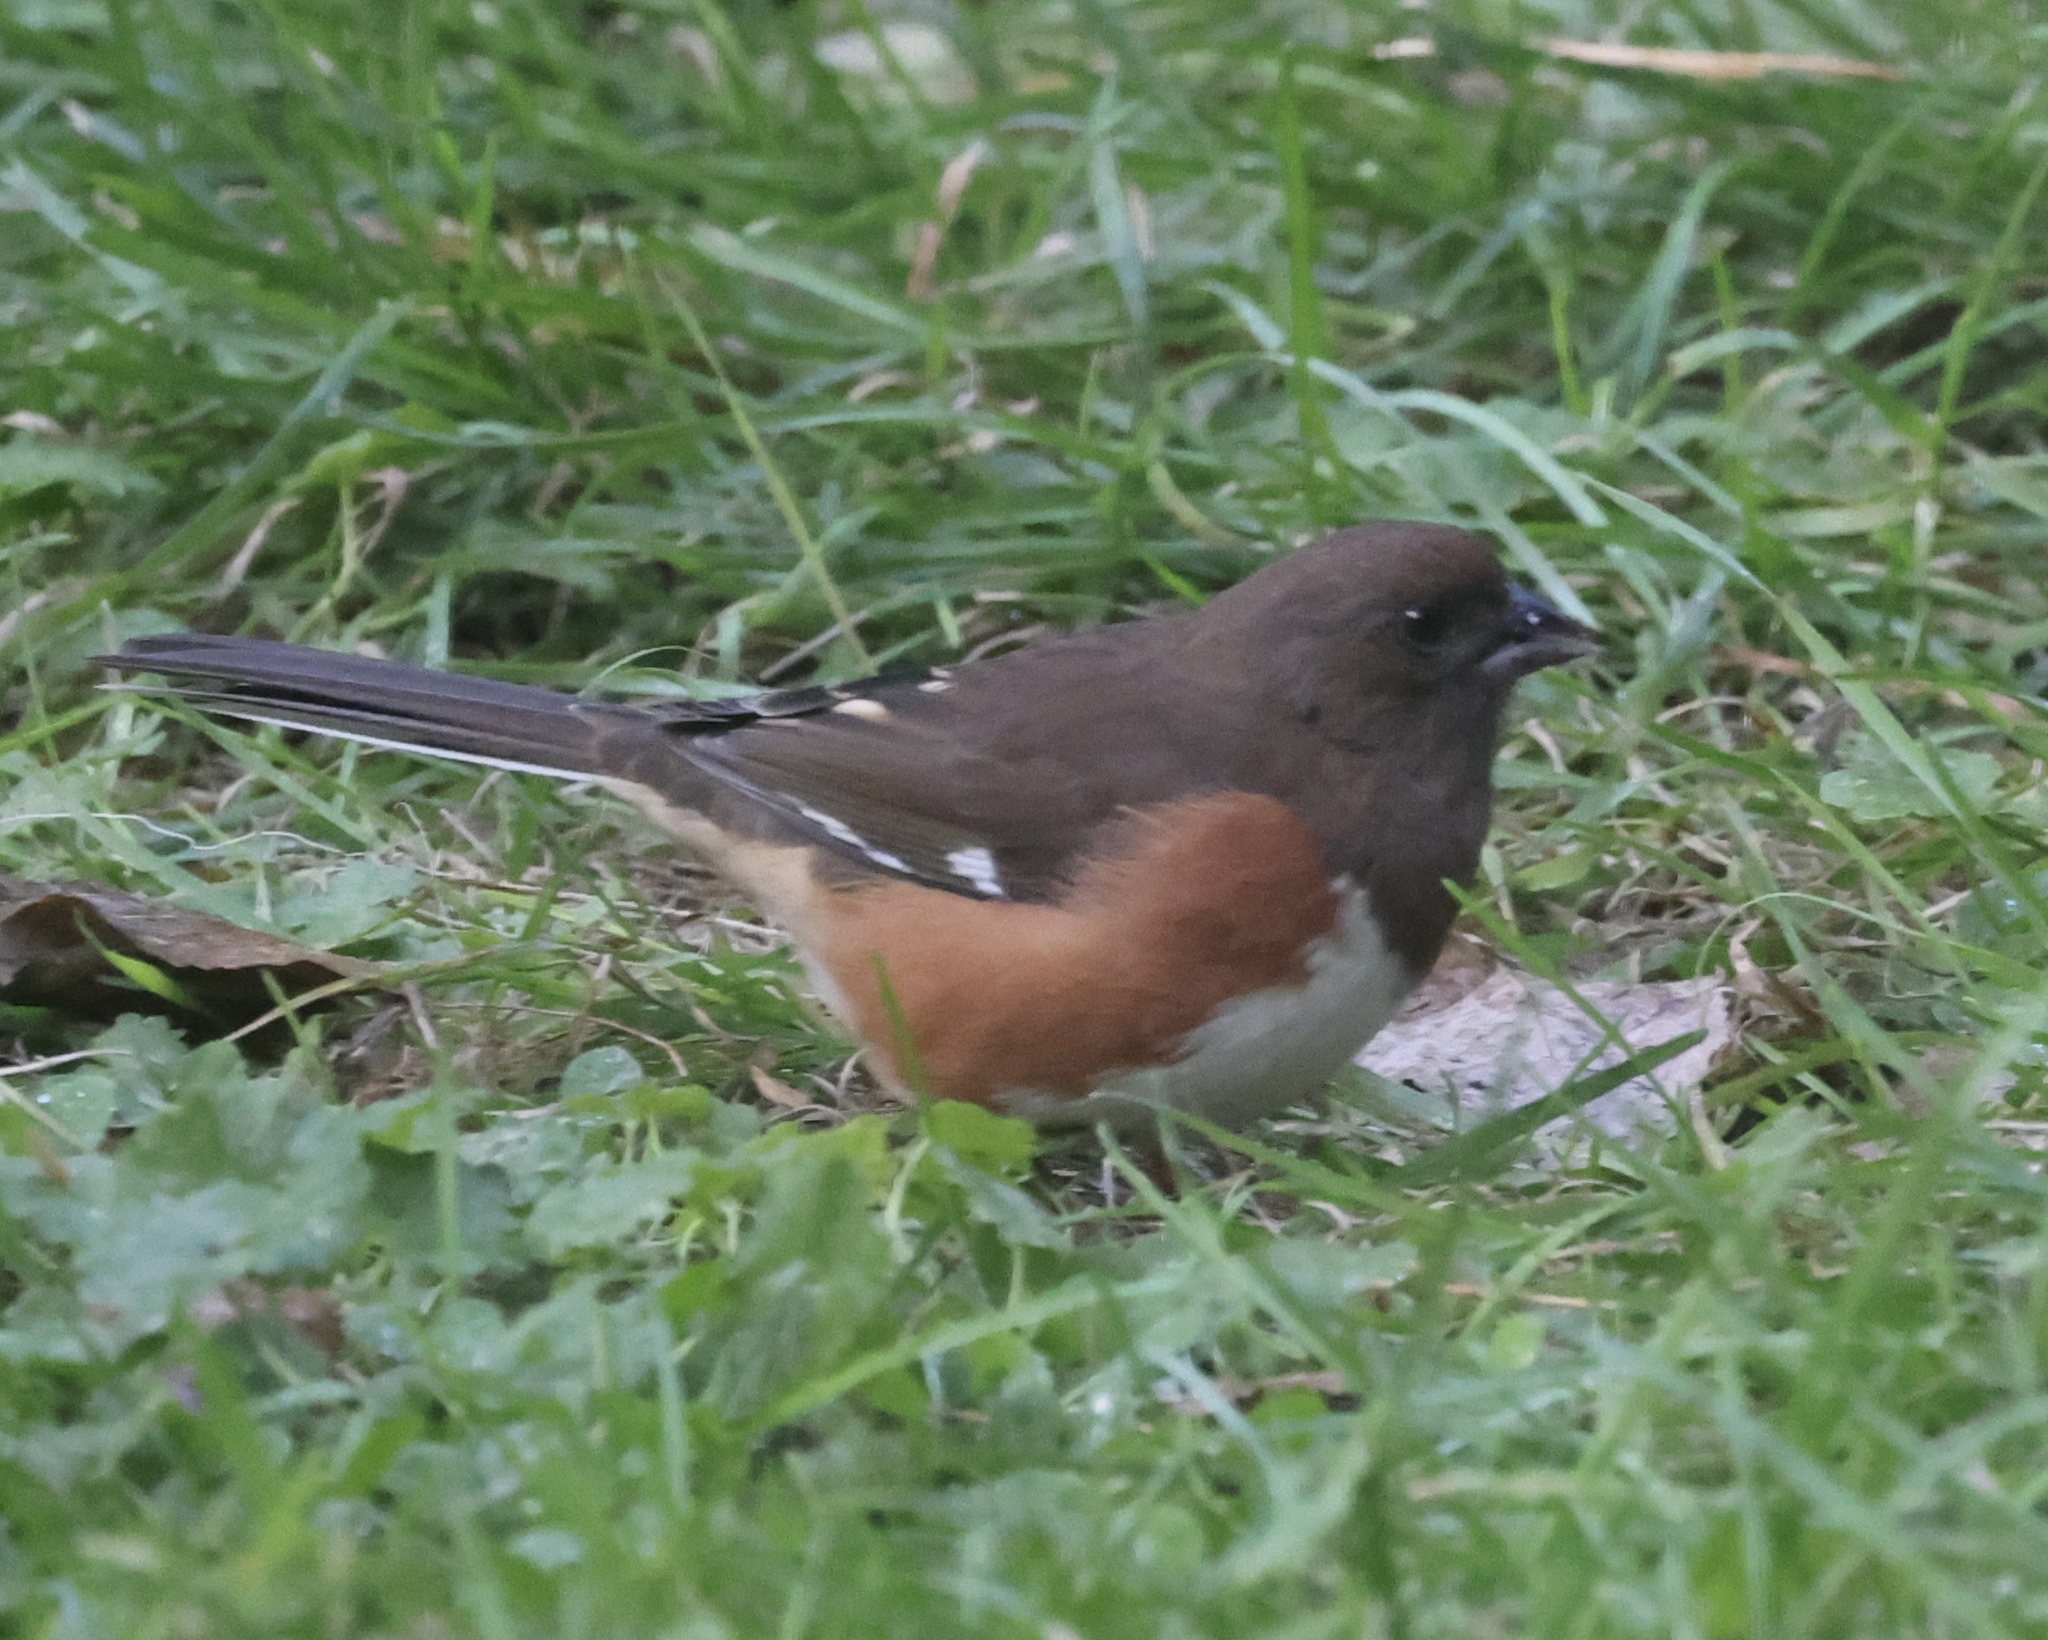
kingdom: Animalia
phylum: Chordata
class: Aves
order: Passeriformes
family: Passerellidae
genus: Pipilo
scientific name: Pipilo erythrophthalmus
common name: Eastern towhee
